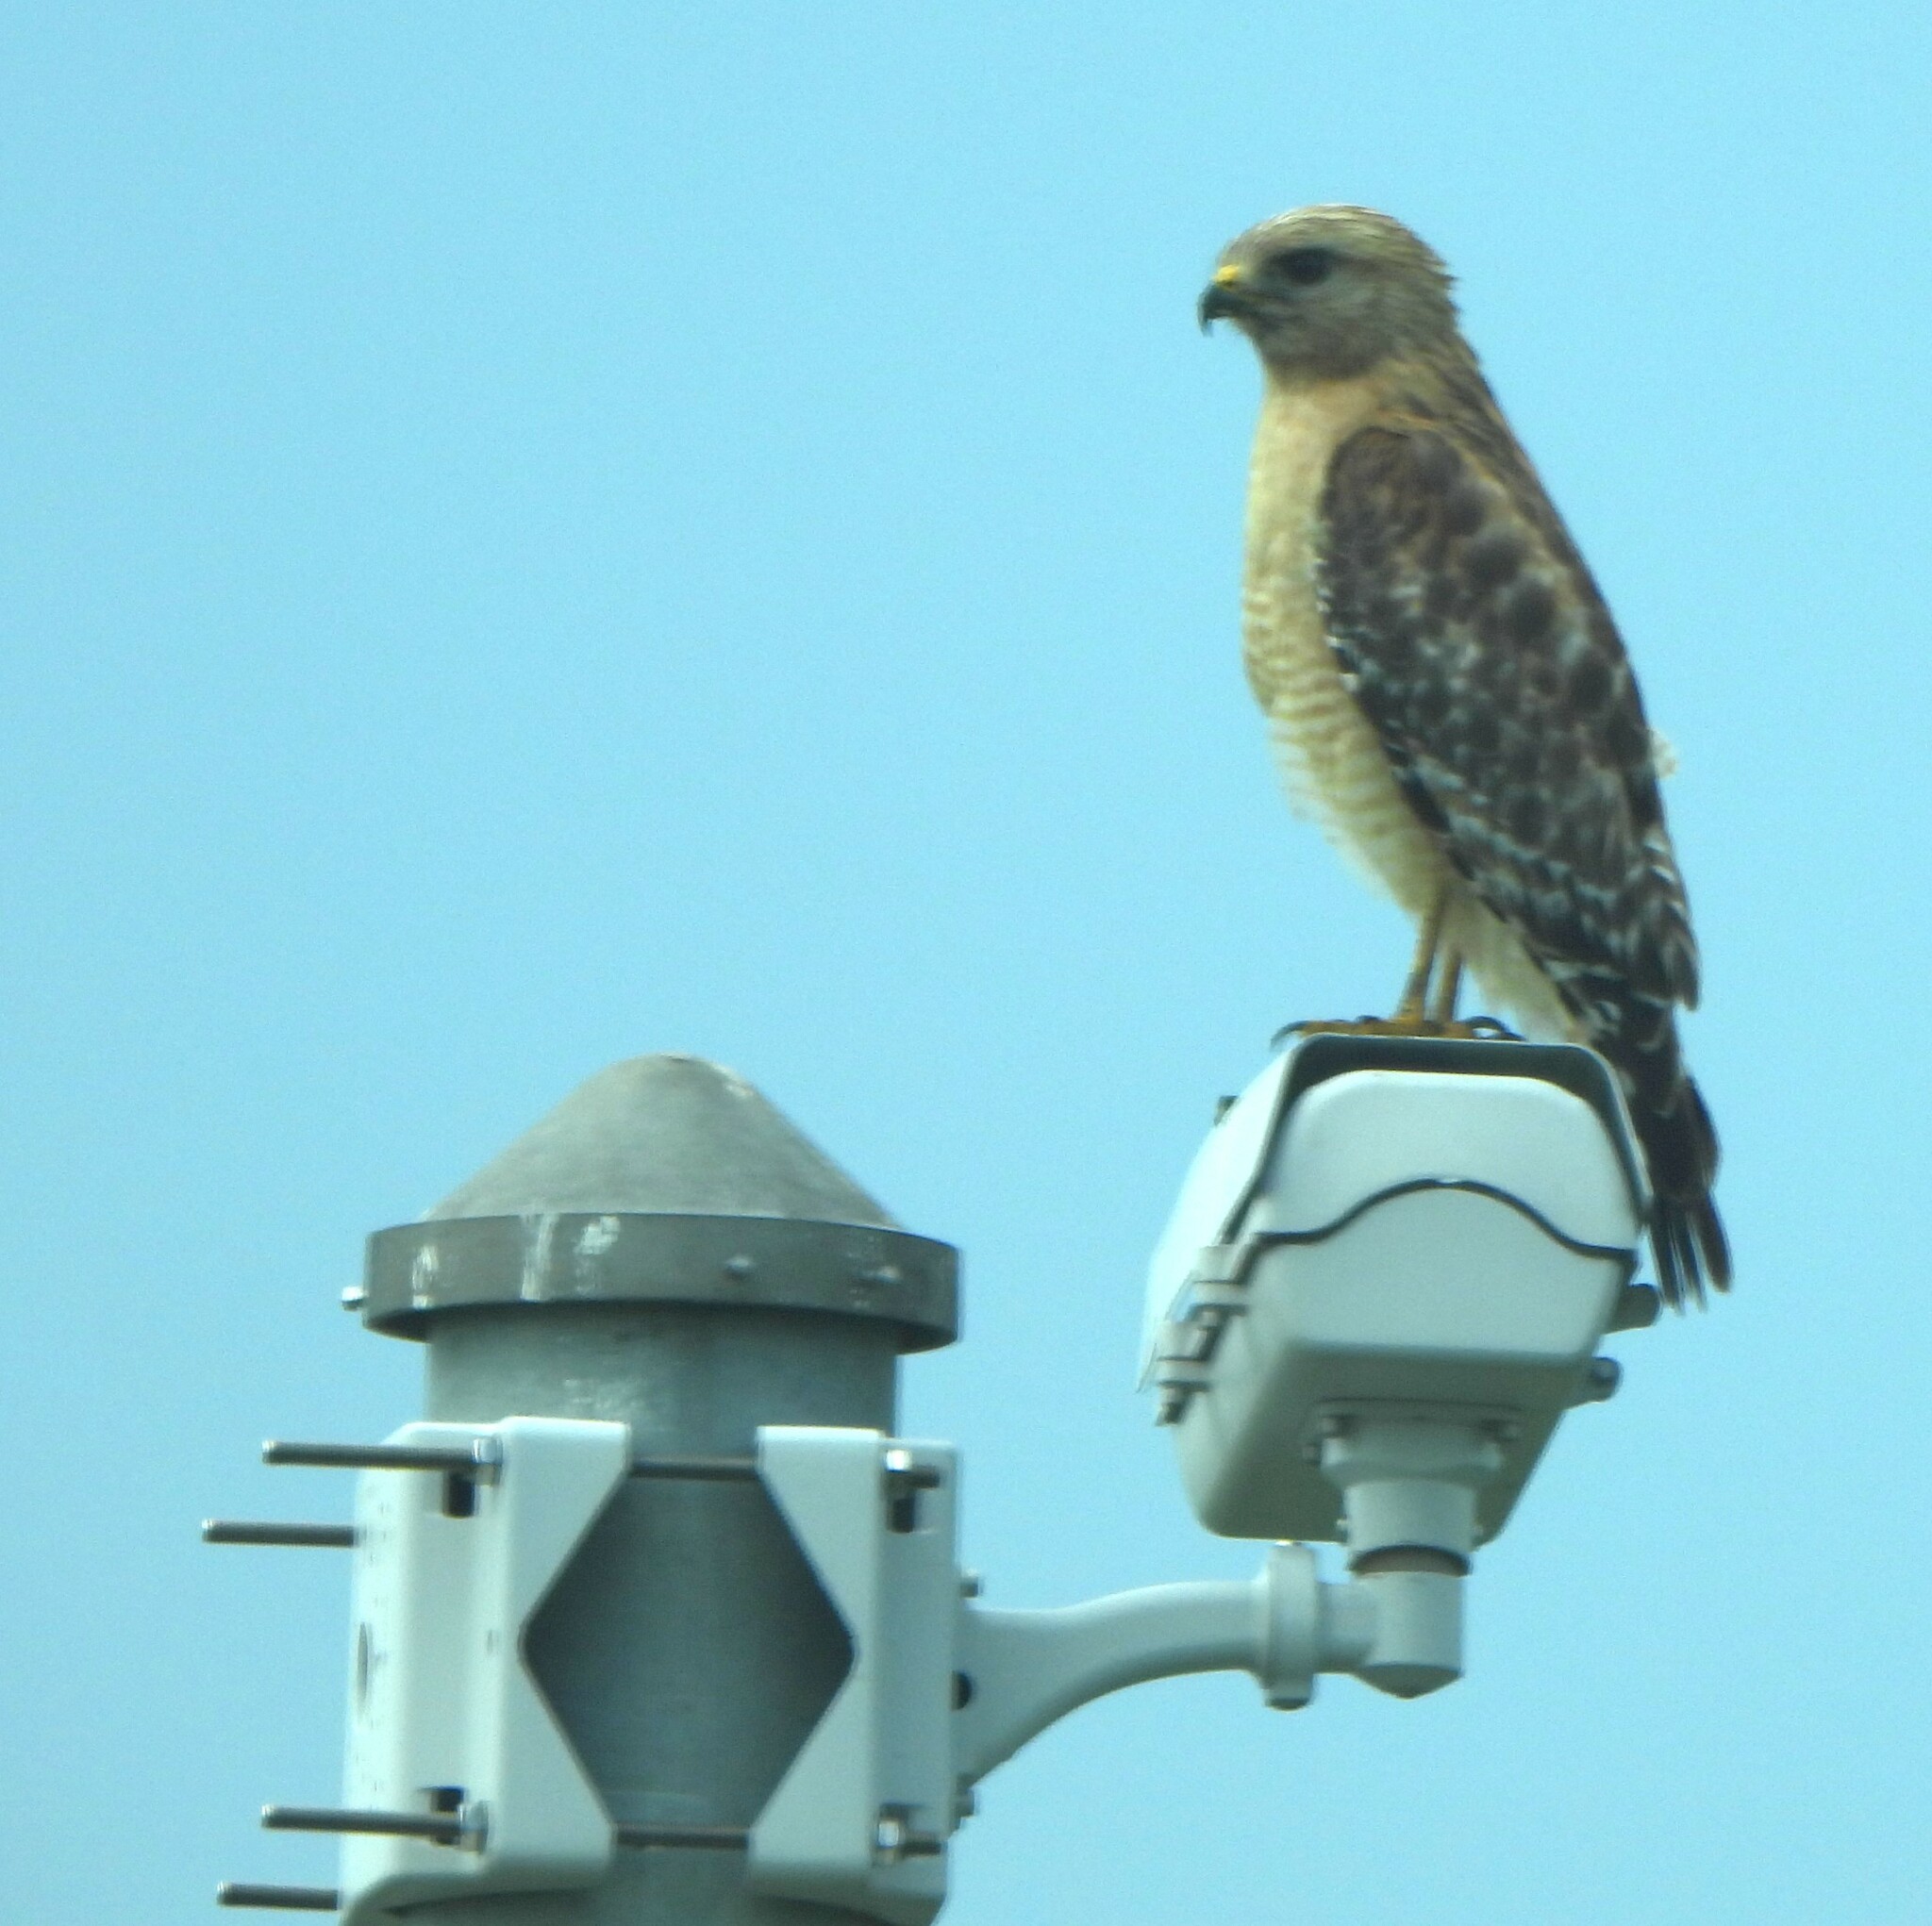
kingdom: Animalia
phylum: Chordata
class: Aves
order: Accipitriformes
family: Accipitridae
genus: Buteo
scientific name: Buteo lineatus
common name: Red-shouldered hawk
